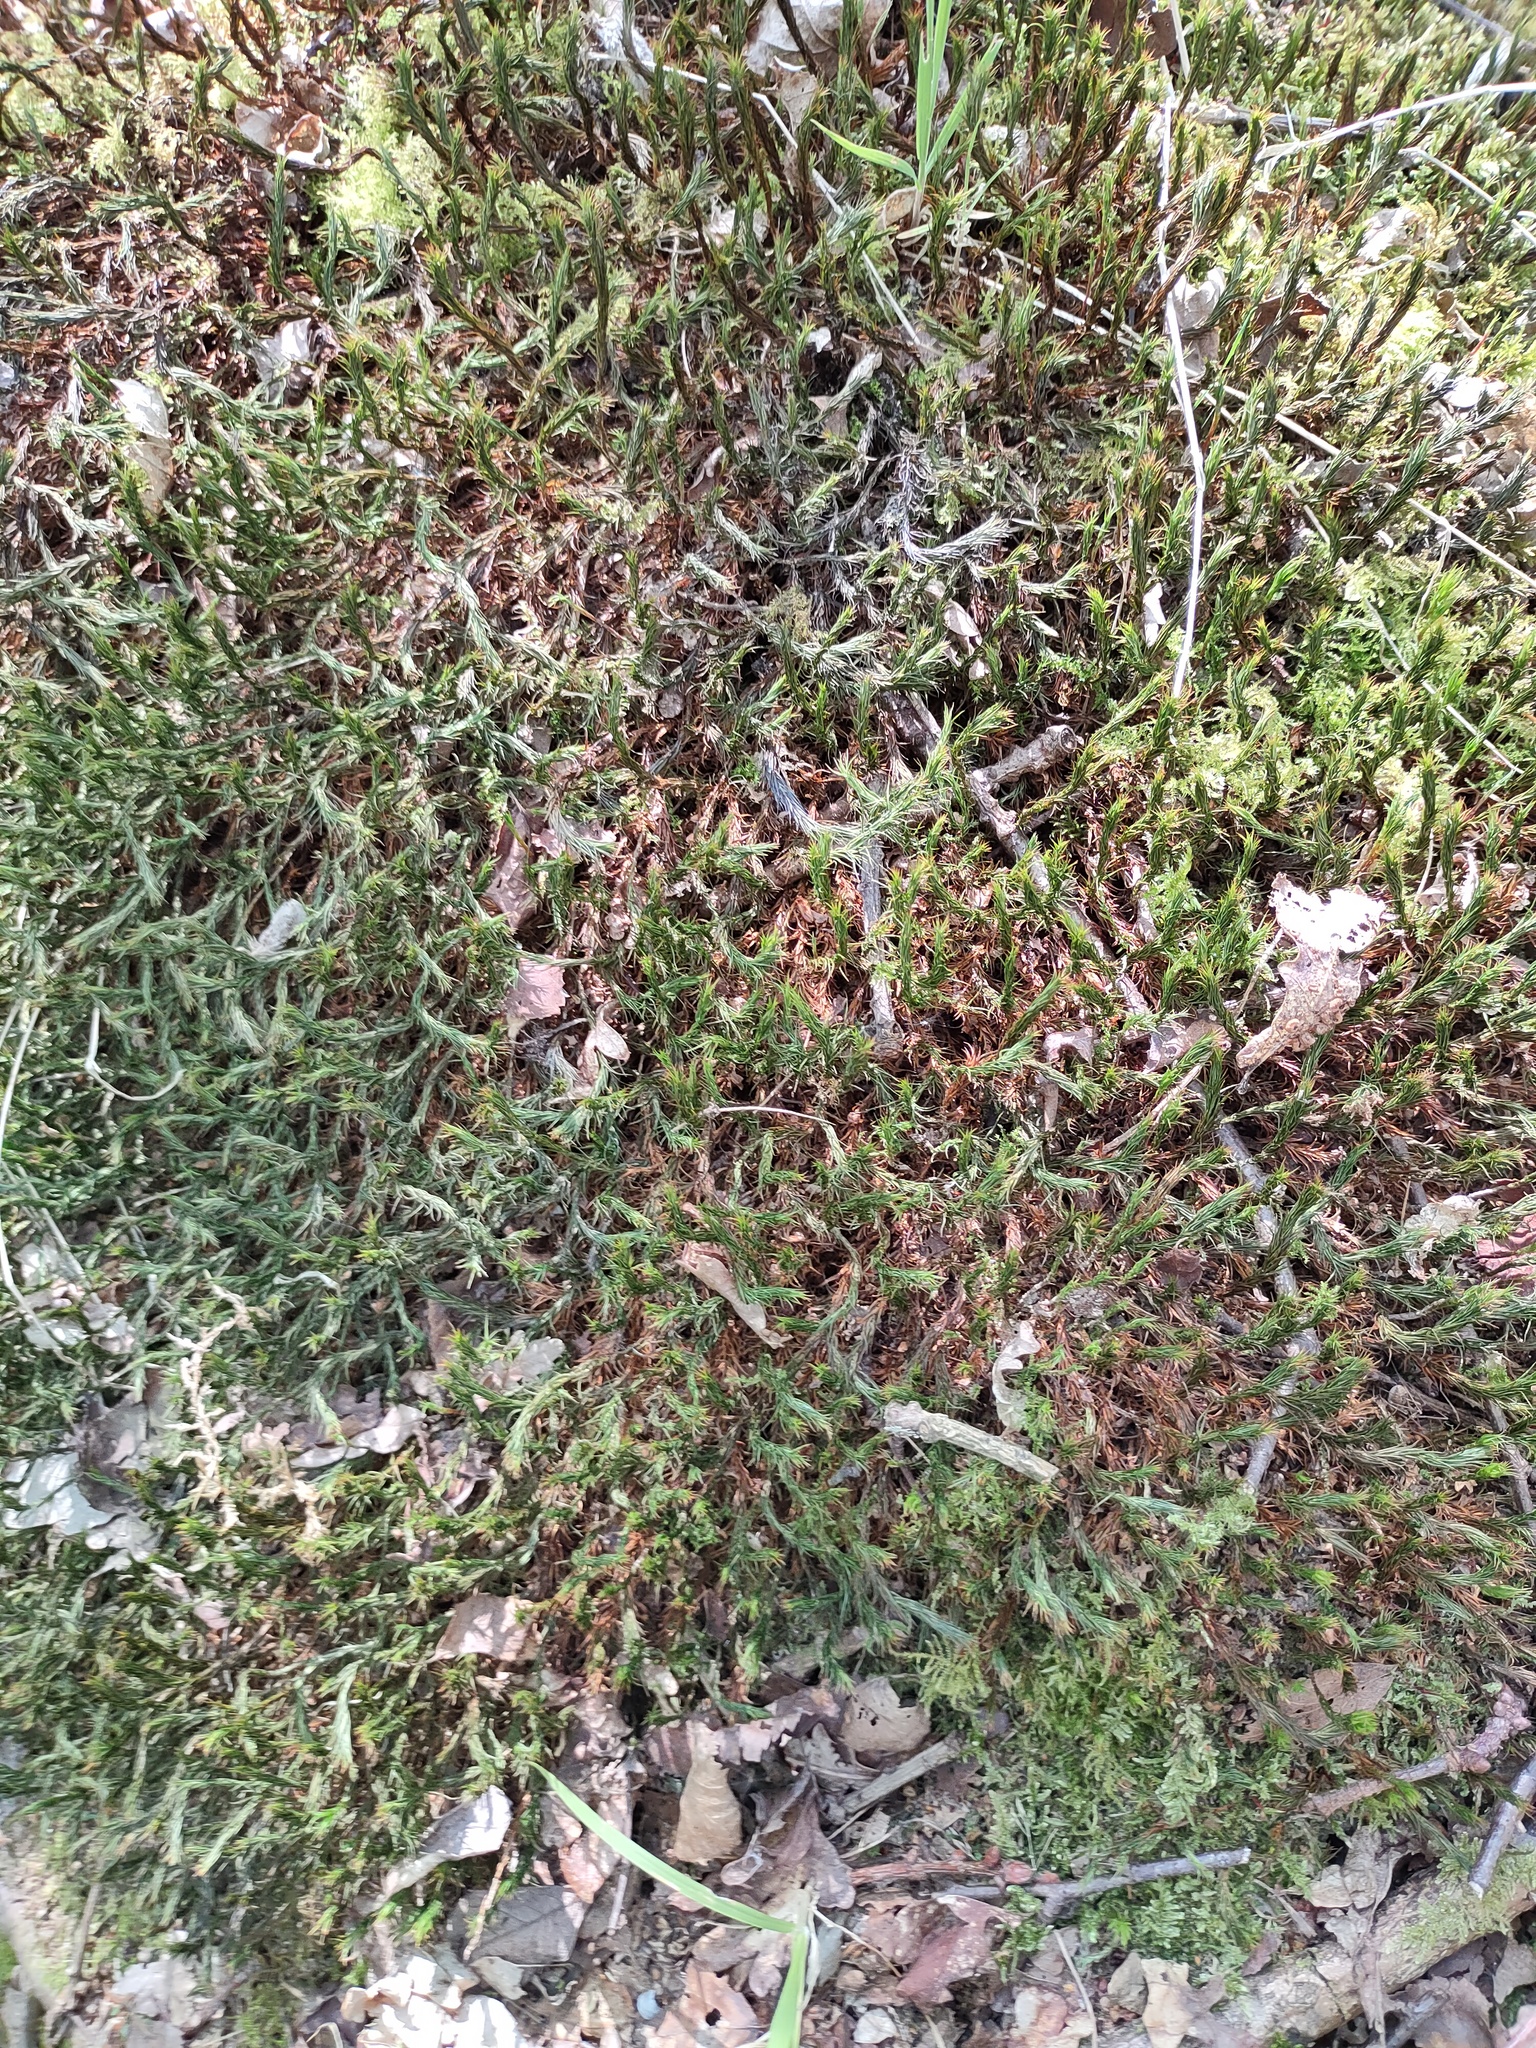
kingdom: Plantae
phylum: Bryophyta
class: Polytrichopsida
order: Polytrichales
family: Polytrichaceae
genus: Polytrichum
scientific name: Polytrichum formosum
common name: Bank haircap moss
